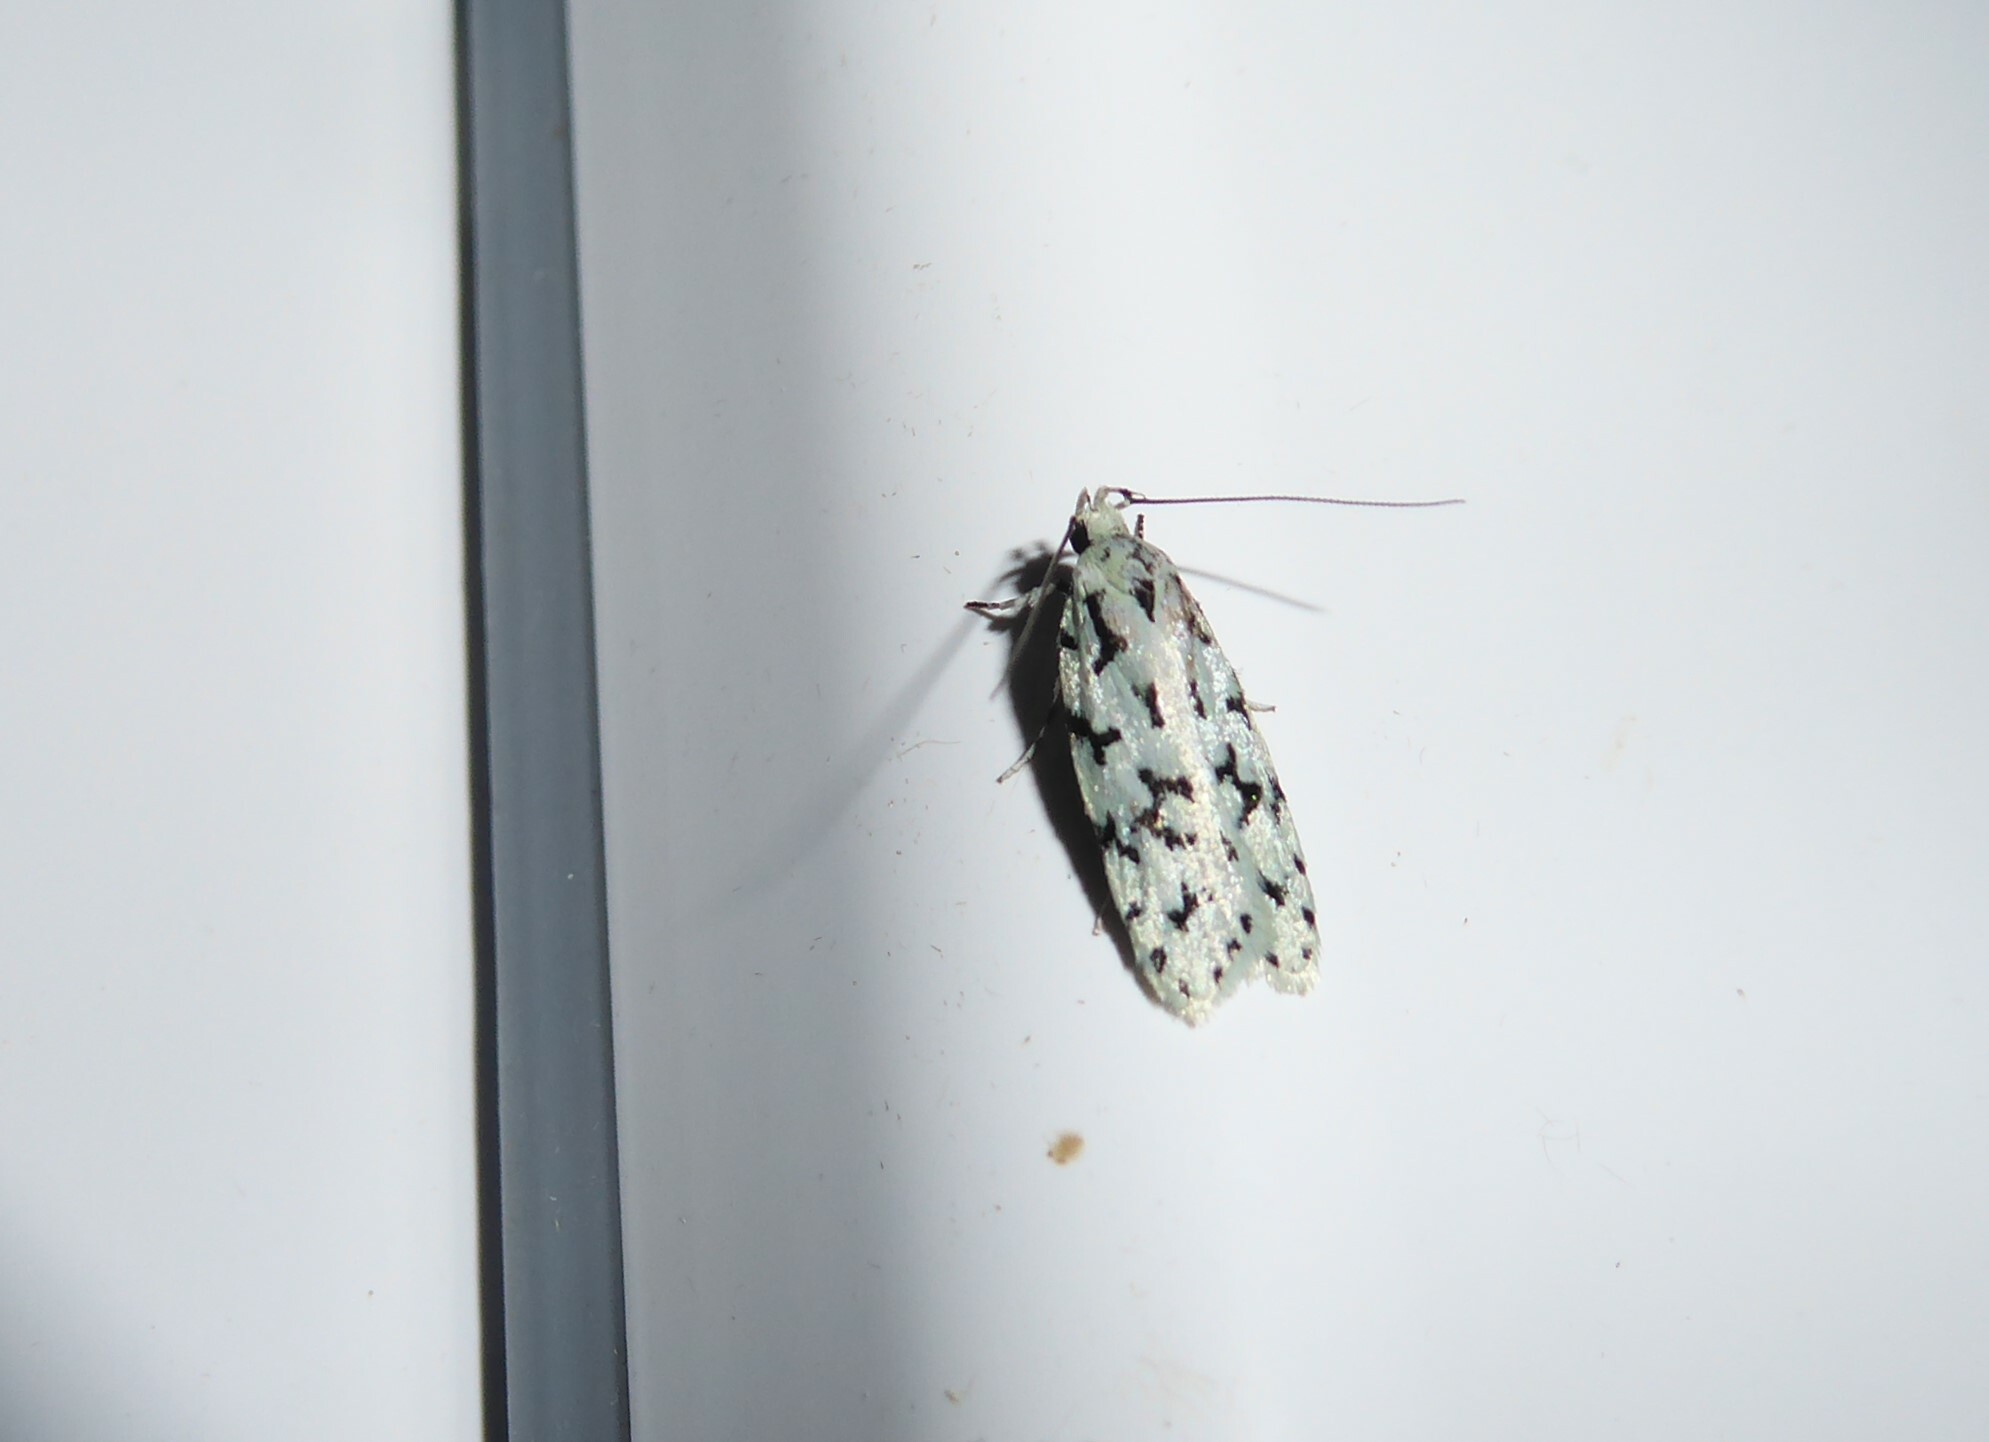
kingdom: Animalia
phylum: Arthropoda
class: Insecta
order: Lepidoptera
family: Oecophoridae
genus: Izatha
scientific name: Izatha huttoni
